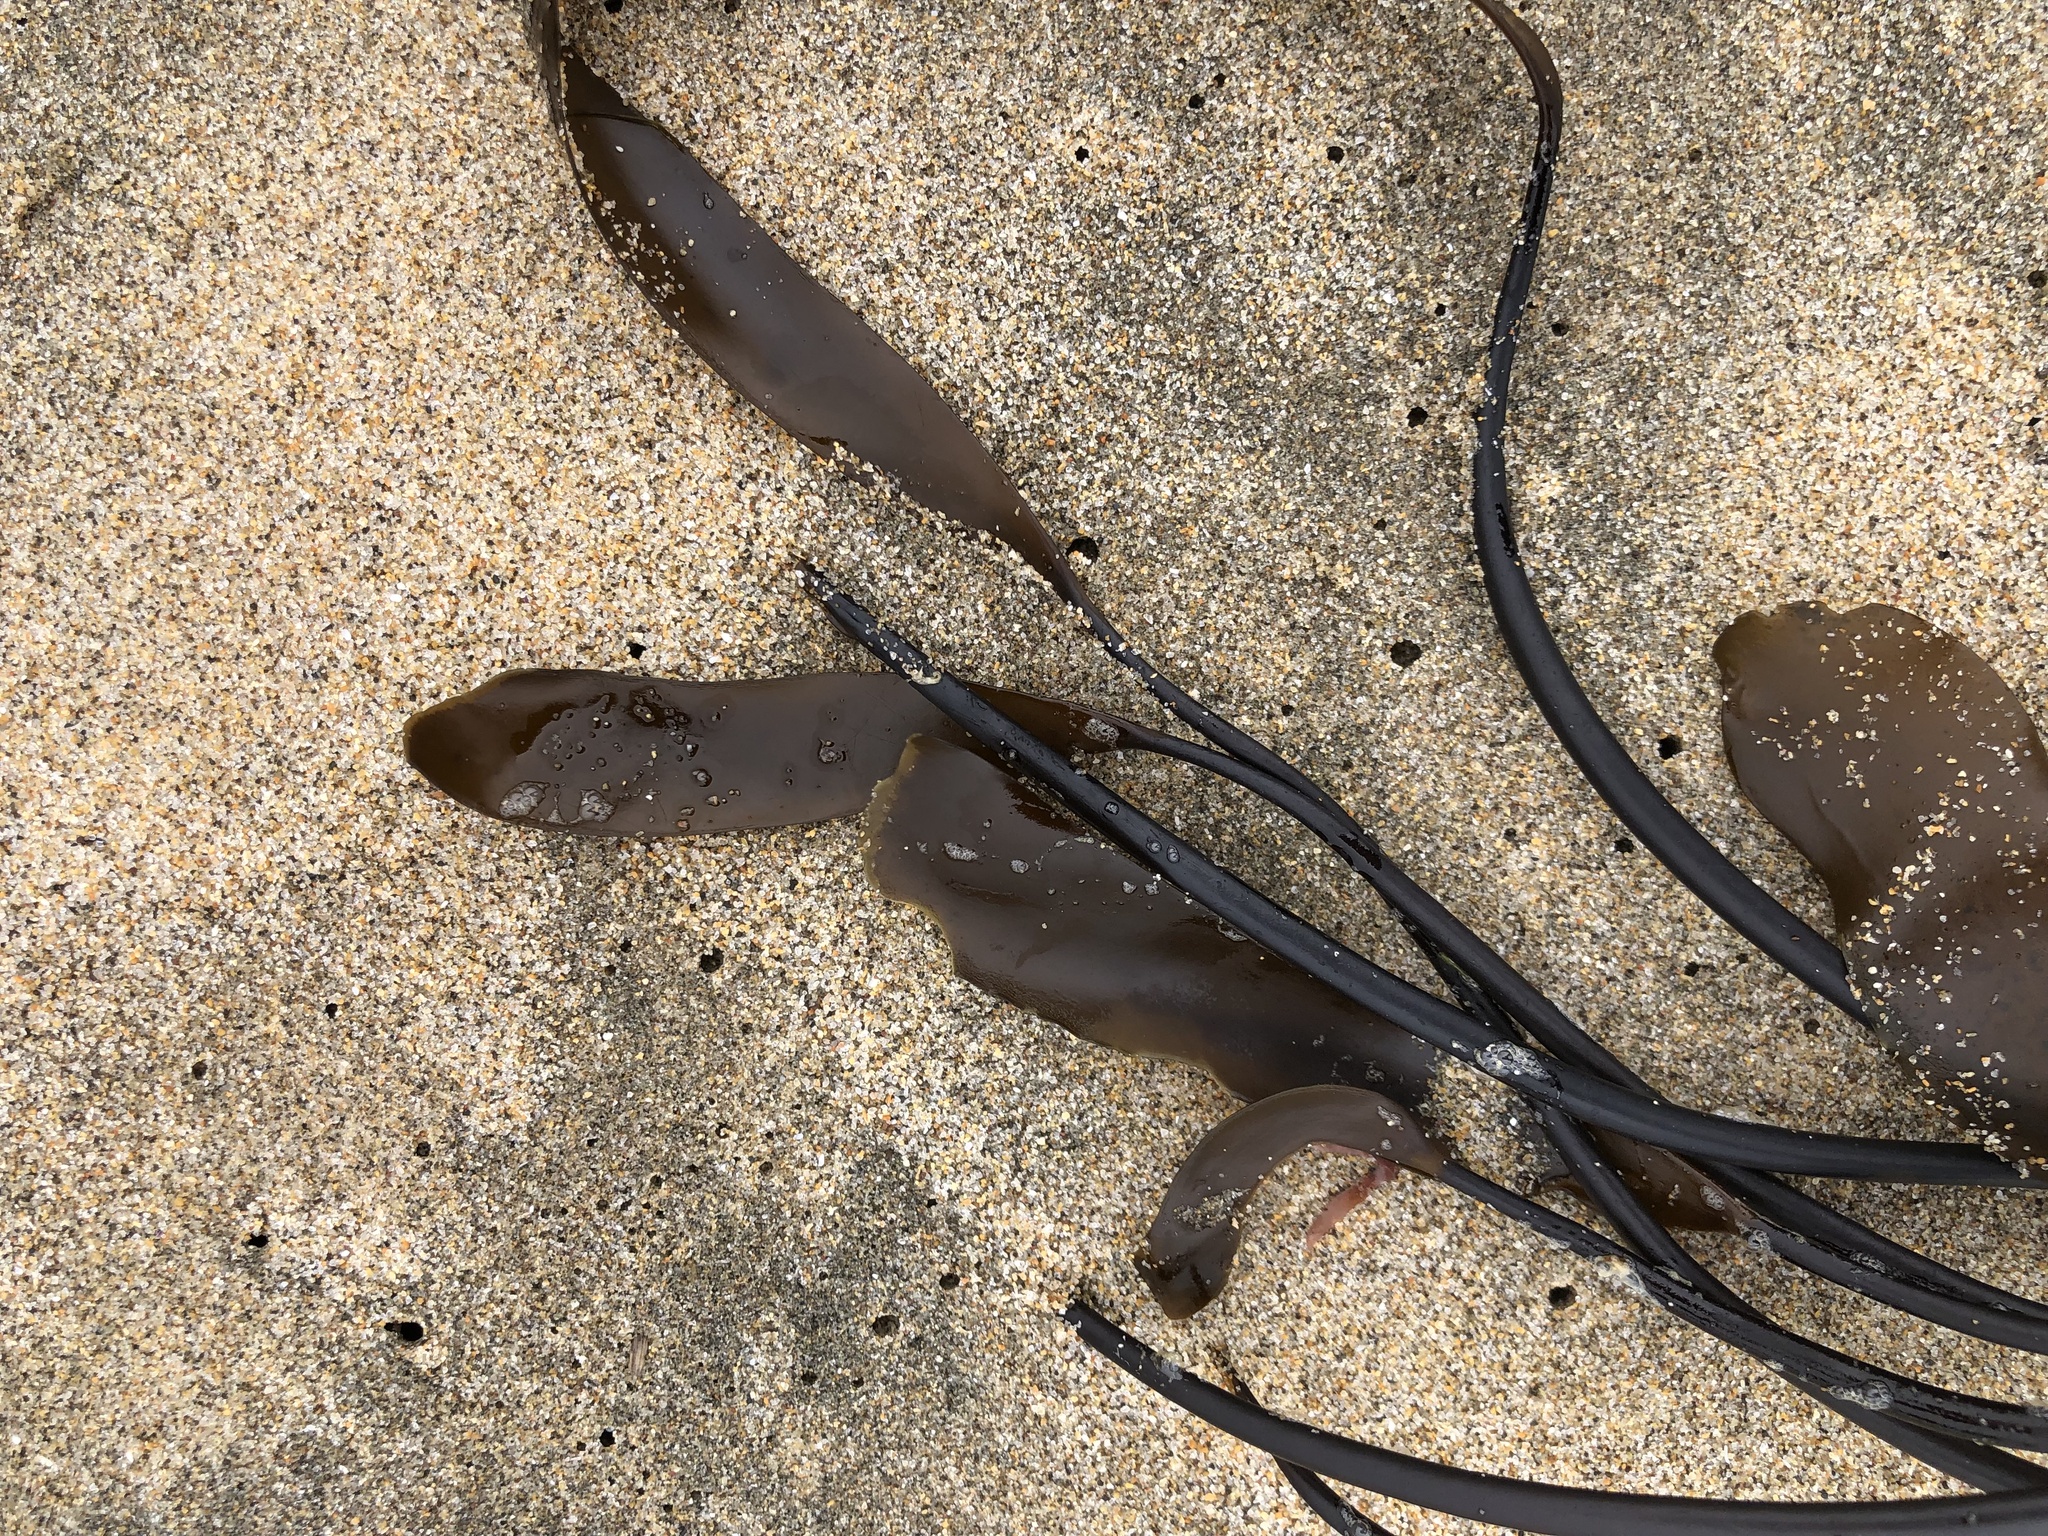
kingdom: Chromista
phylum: Ochrophyta
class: Phaeophyceae
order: Laminariales
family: Laminariaceae
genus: Laminaria
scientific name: Laminaria sinclairii
